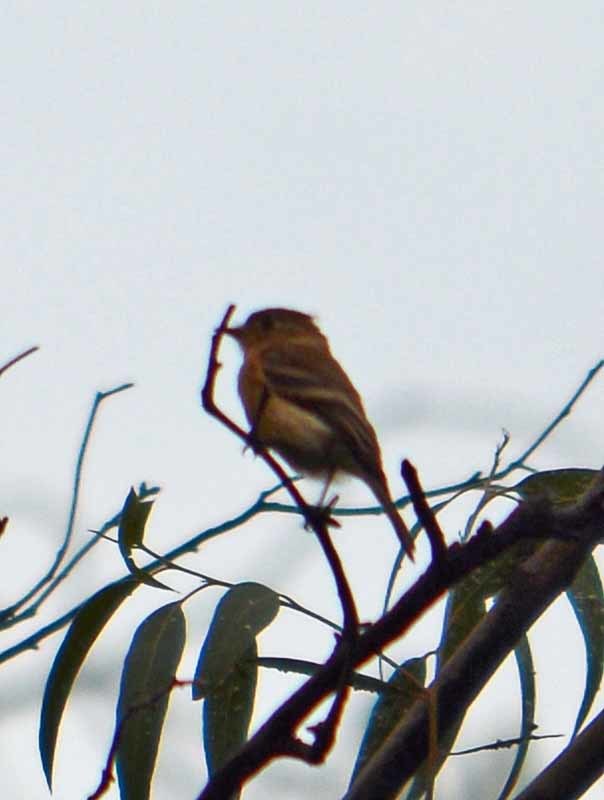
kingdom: Animalia
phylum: Chordata
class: Aves
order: Passeriformes
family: Tyrannidae
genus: Empidonax
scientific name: Empidonax fulvifrons
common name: Buff-breasted flycatcher
